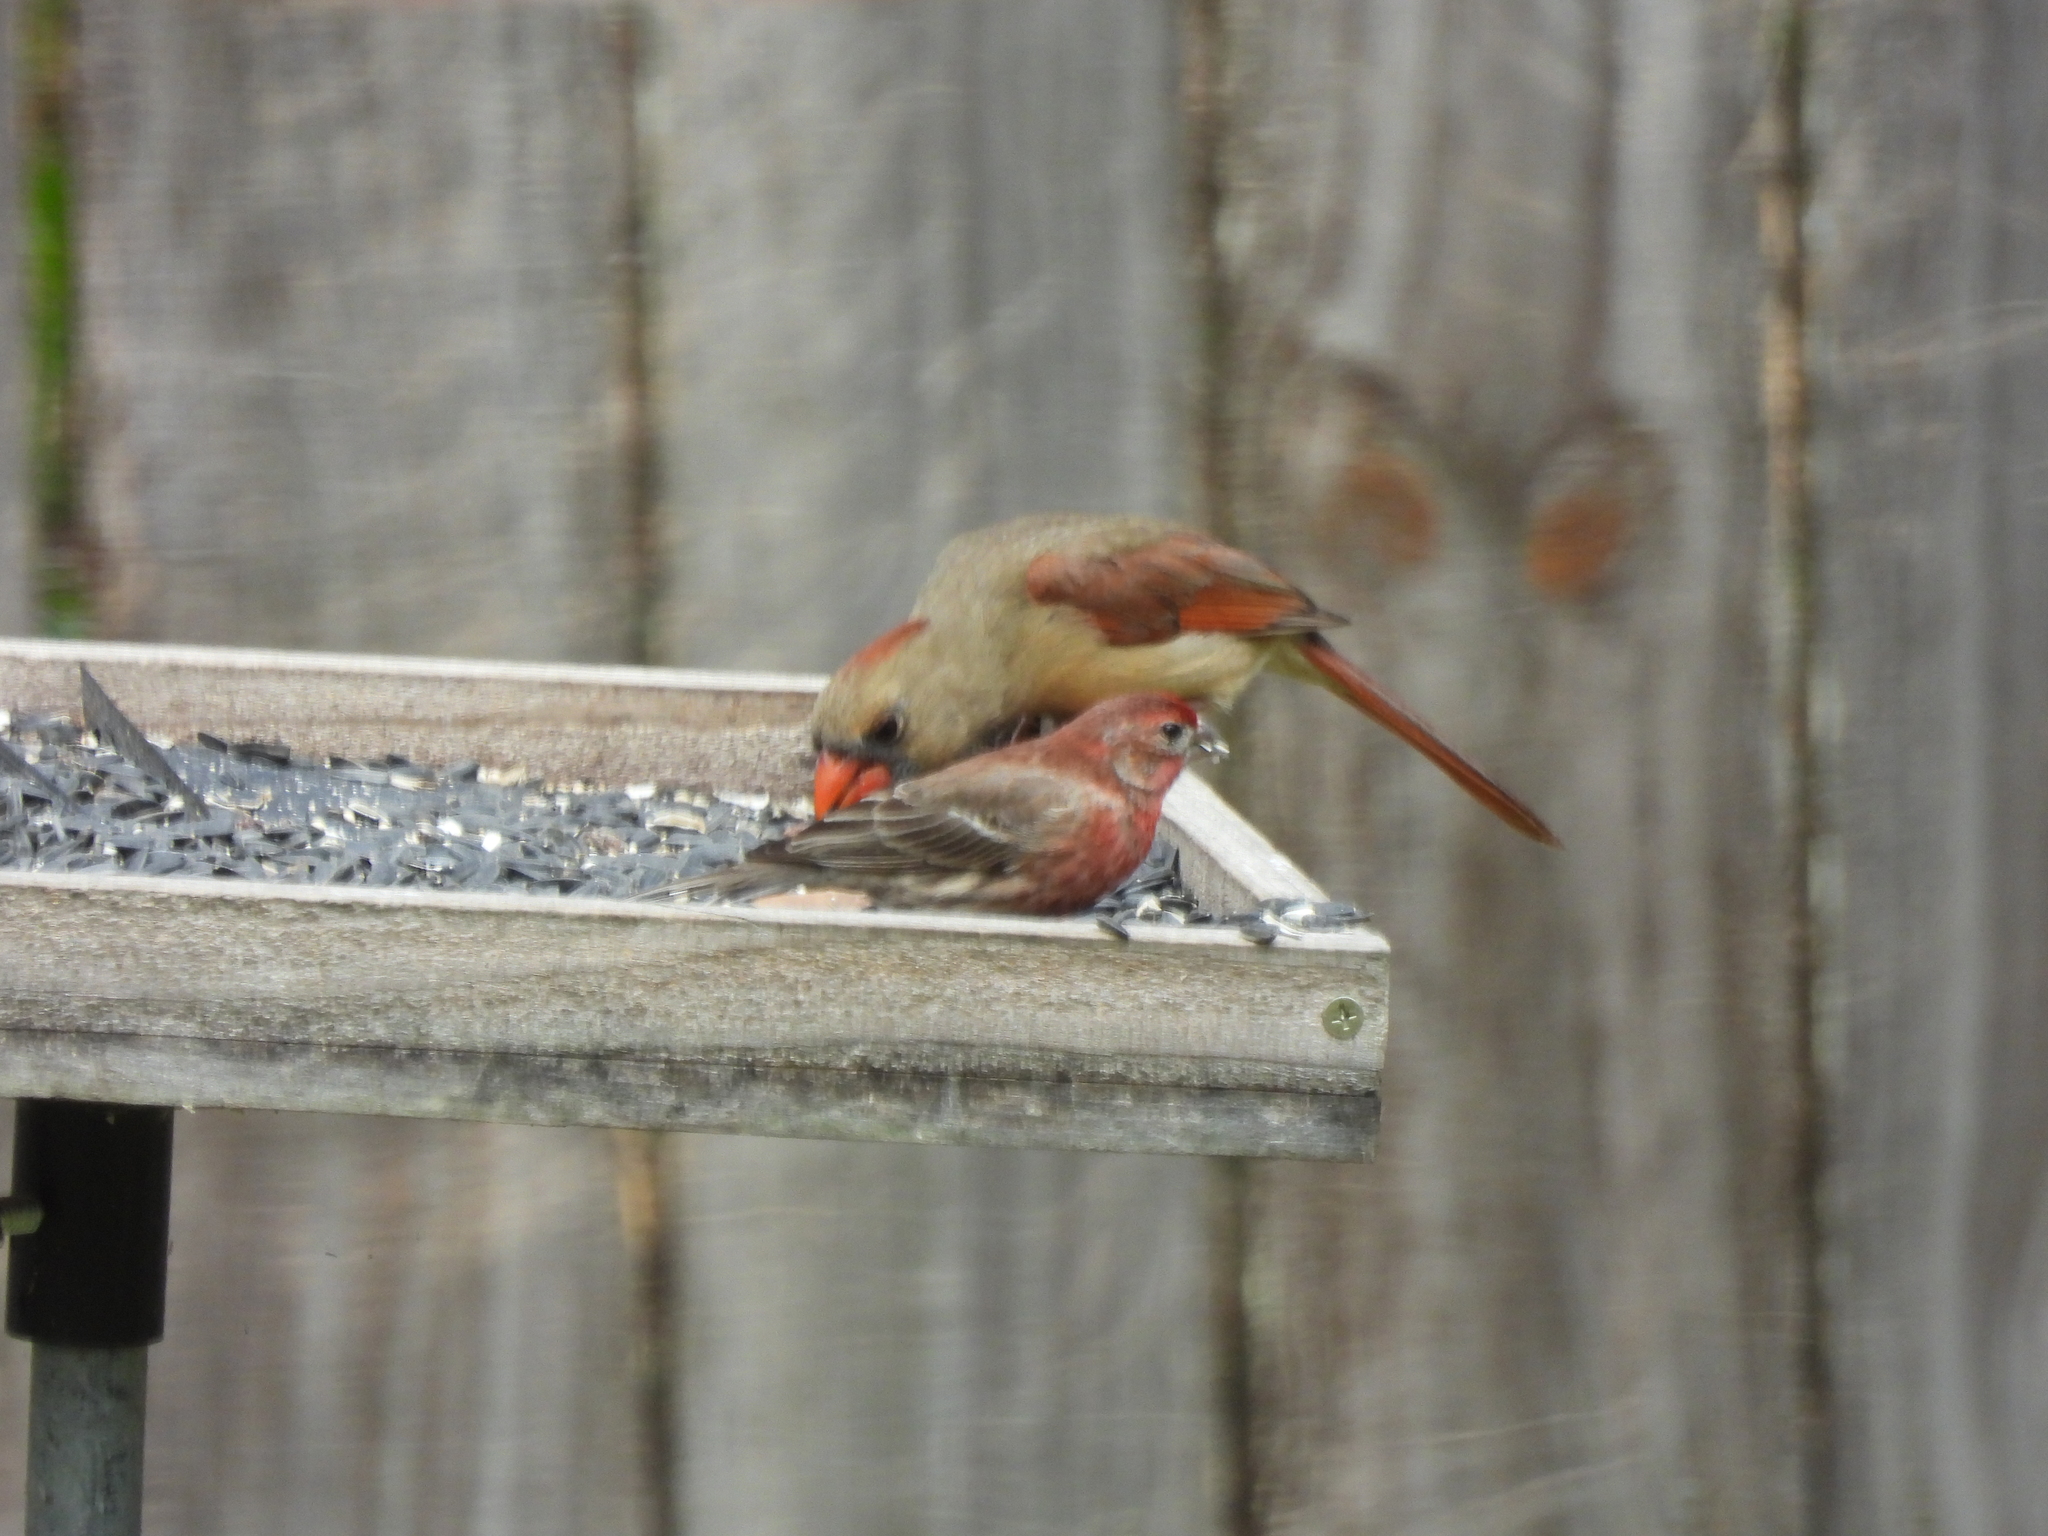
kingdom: Animalia
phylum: Chordata
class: Aves
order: Passeriformes
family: Fringillidae
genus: Haemorhous
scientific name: Haemorhous mexicanus
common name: House finch
